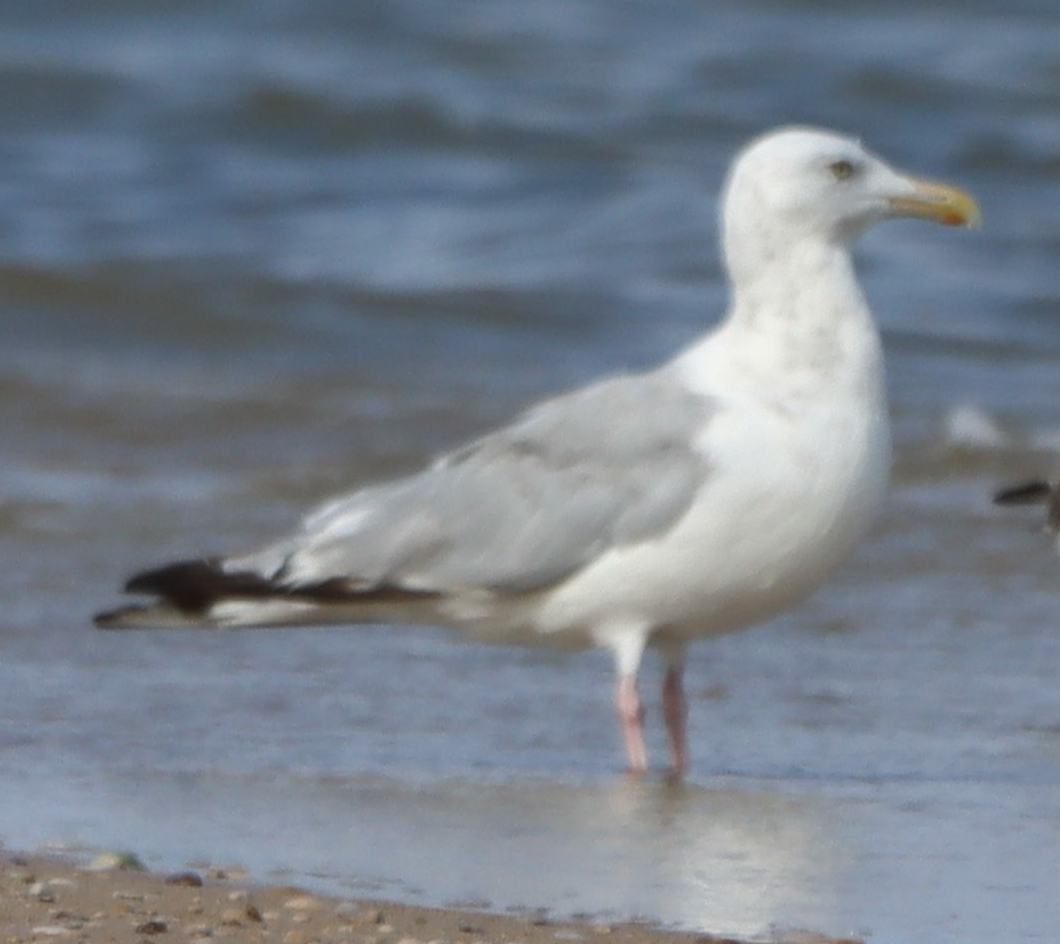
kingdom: Animalia
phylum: Chordata
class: Aves
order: Charadriiformes
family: Laridae
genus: Larus
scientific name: Larus argentatus
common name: Herring gull
